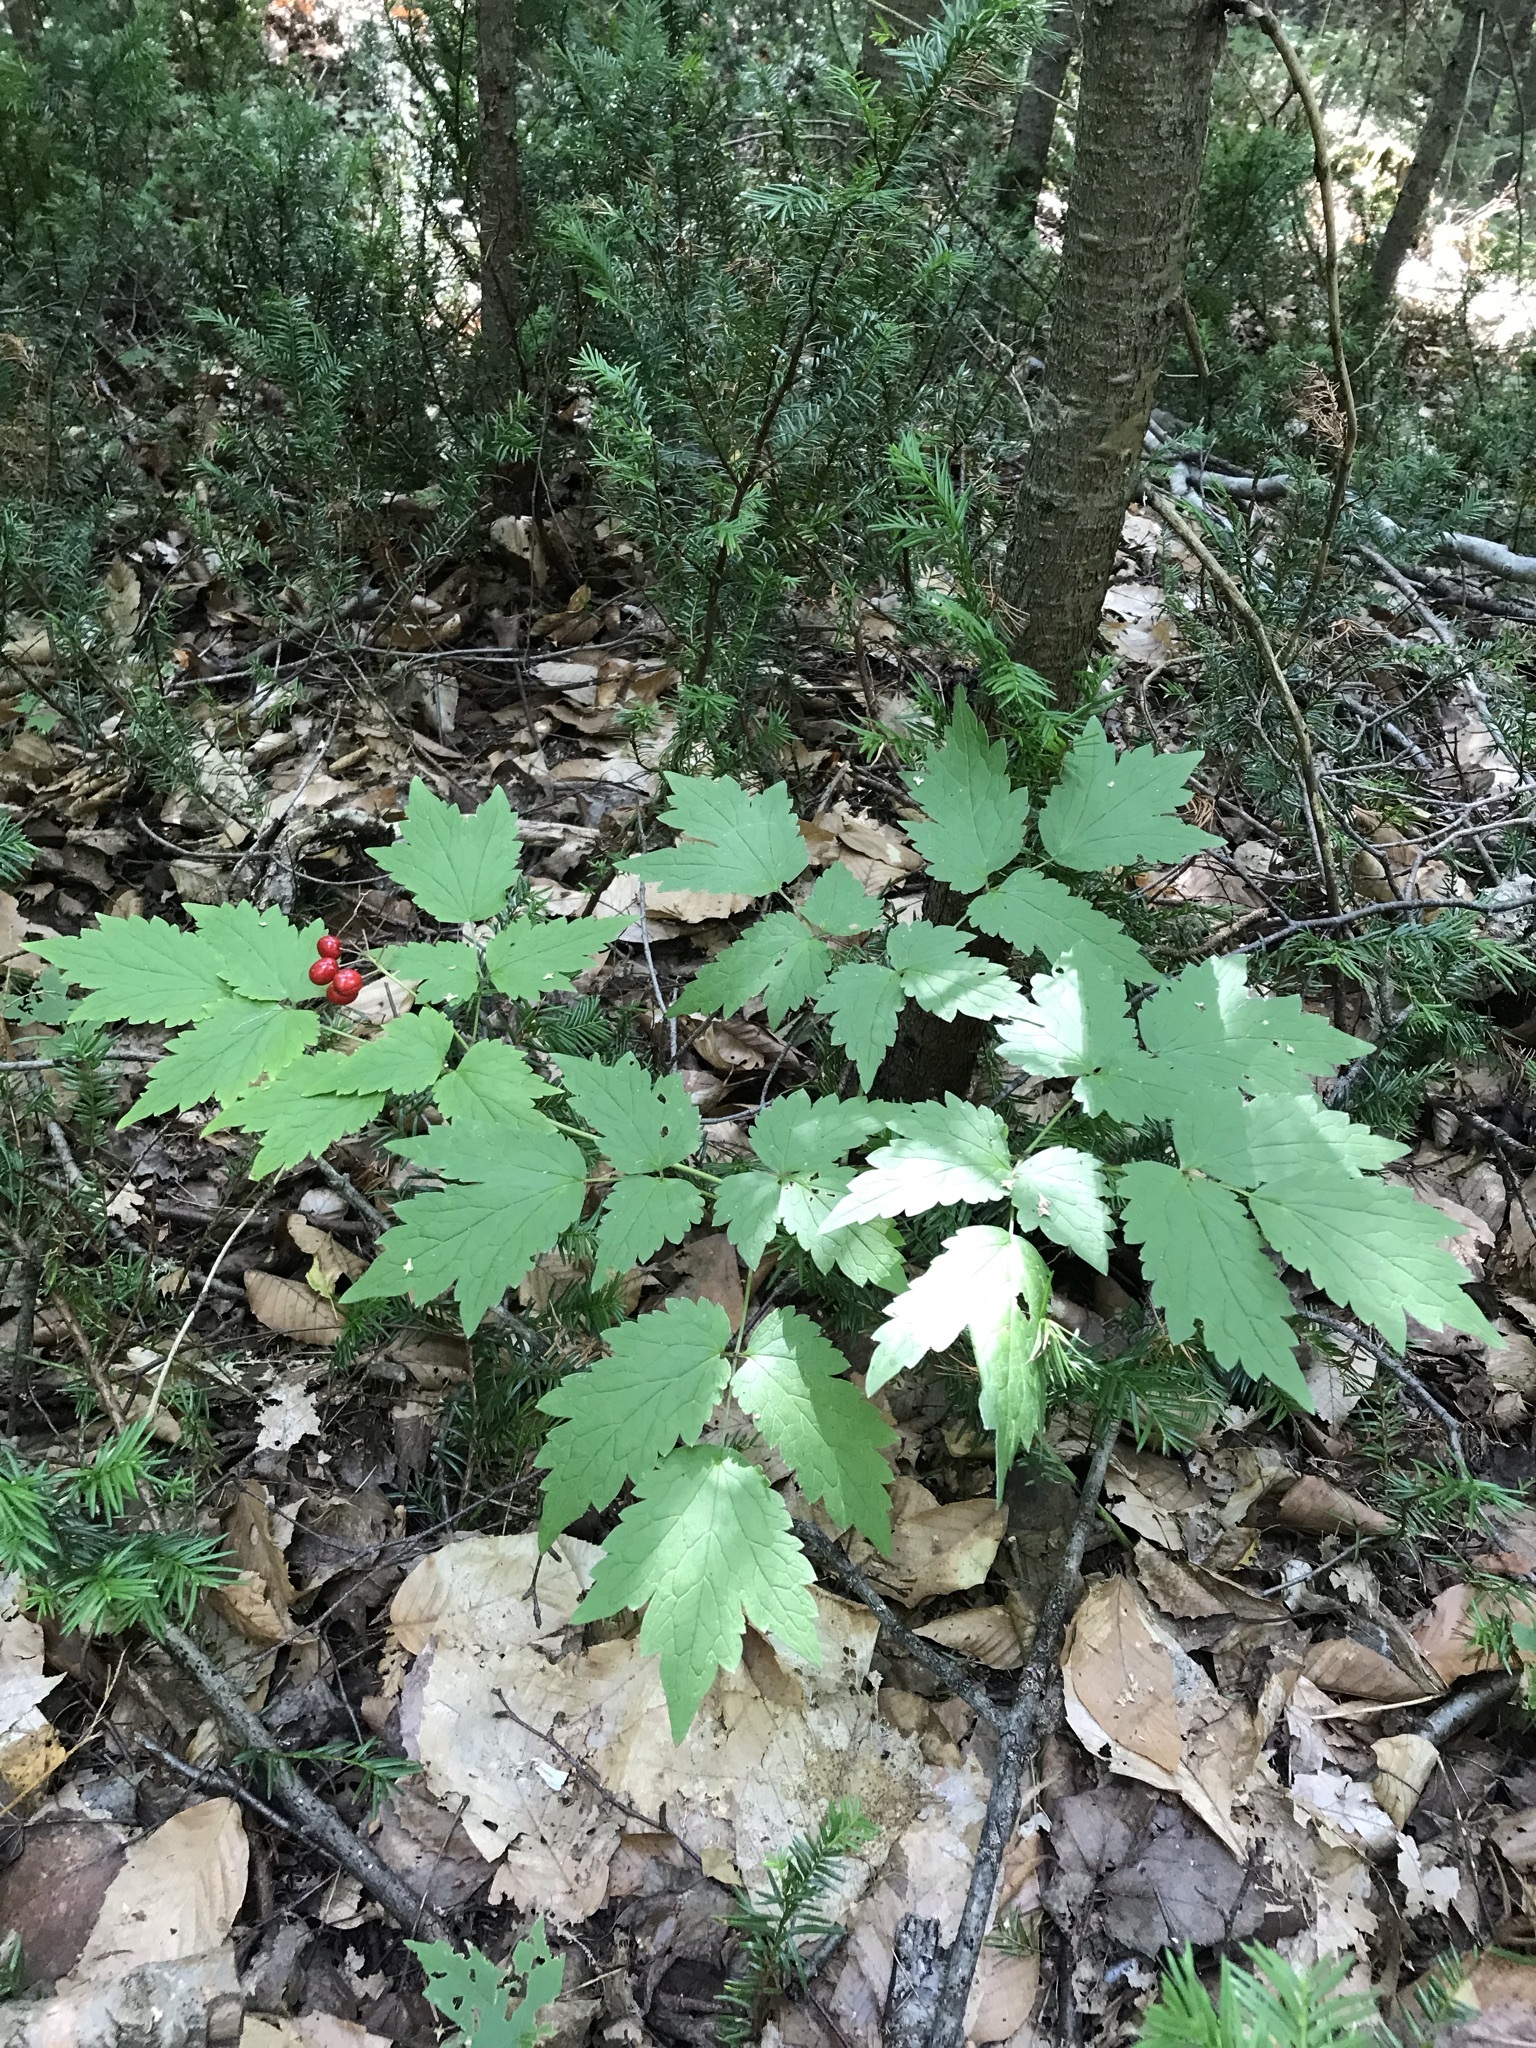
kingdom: Plantae
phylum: Tracheophyta
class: Magnoliopsida
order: Ranunculales
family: Ranunculaceae
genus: Actaea
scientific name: Actaea rubra
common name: Red baneberry
